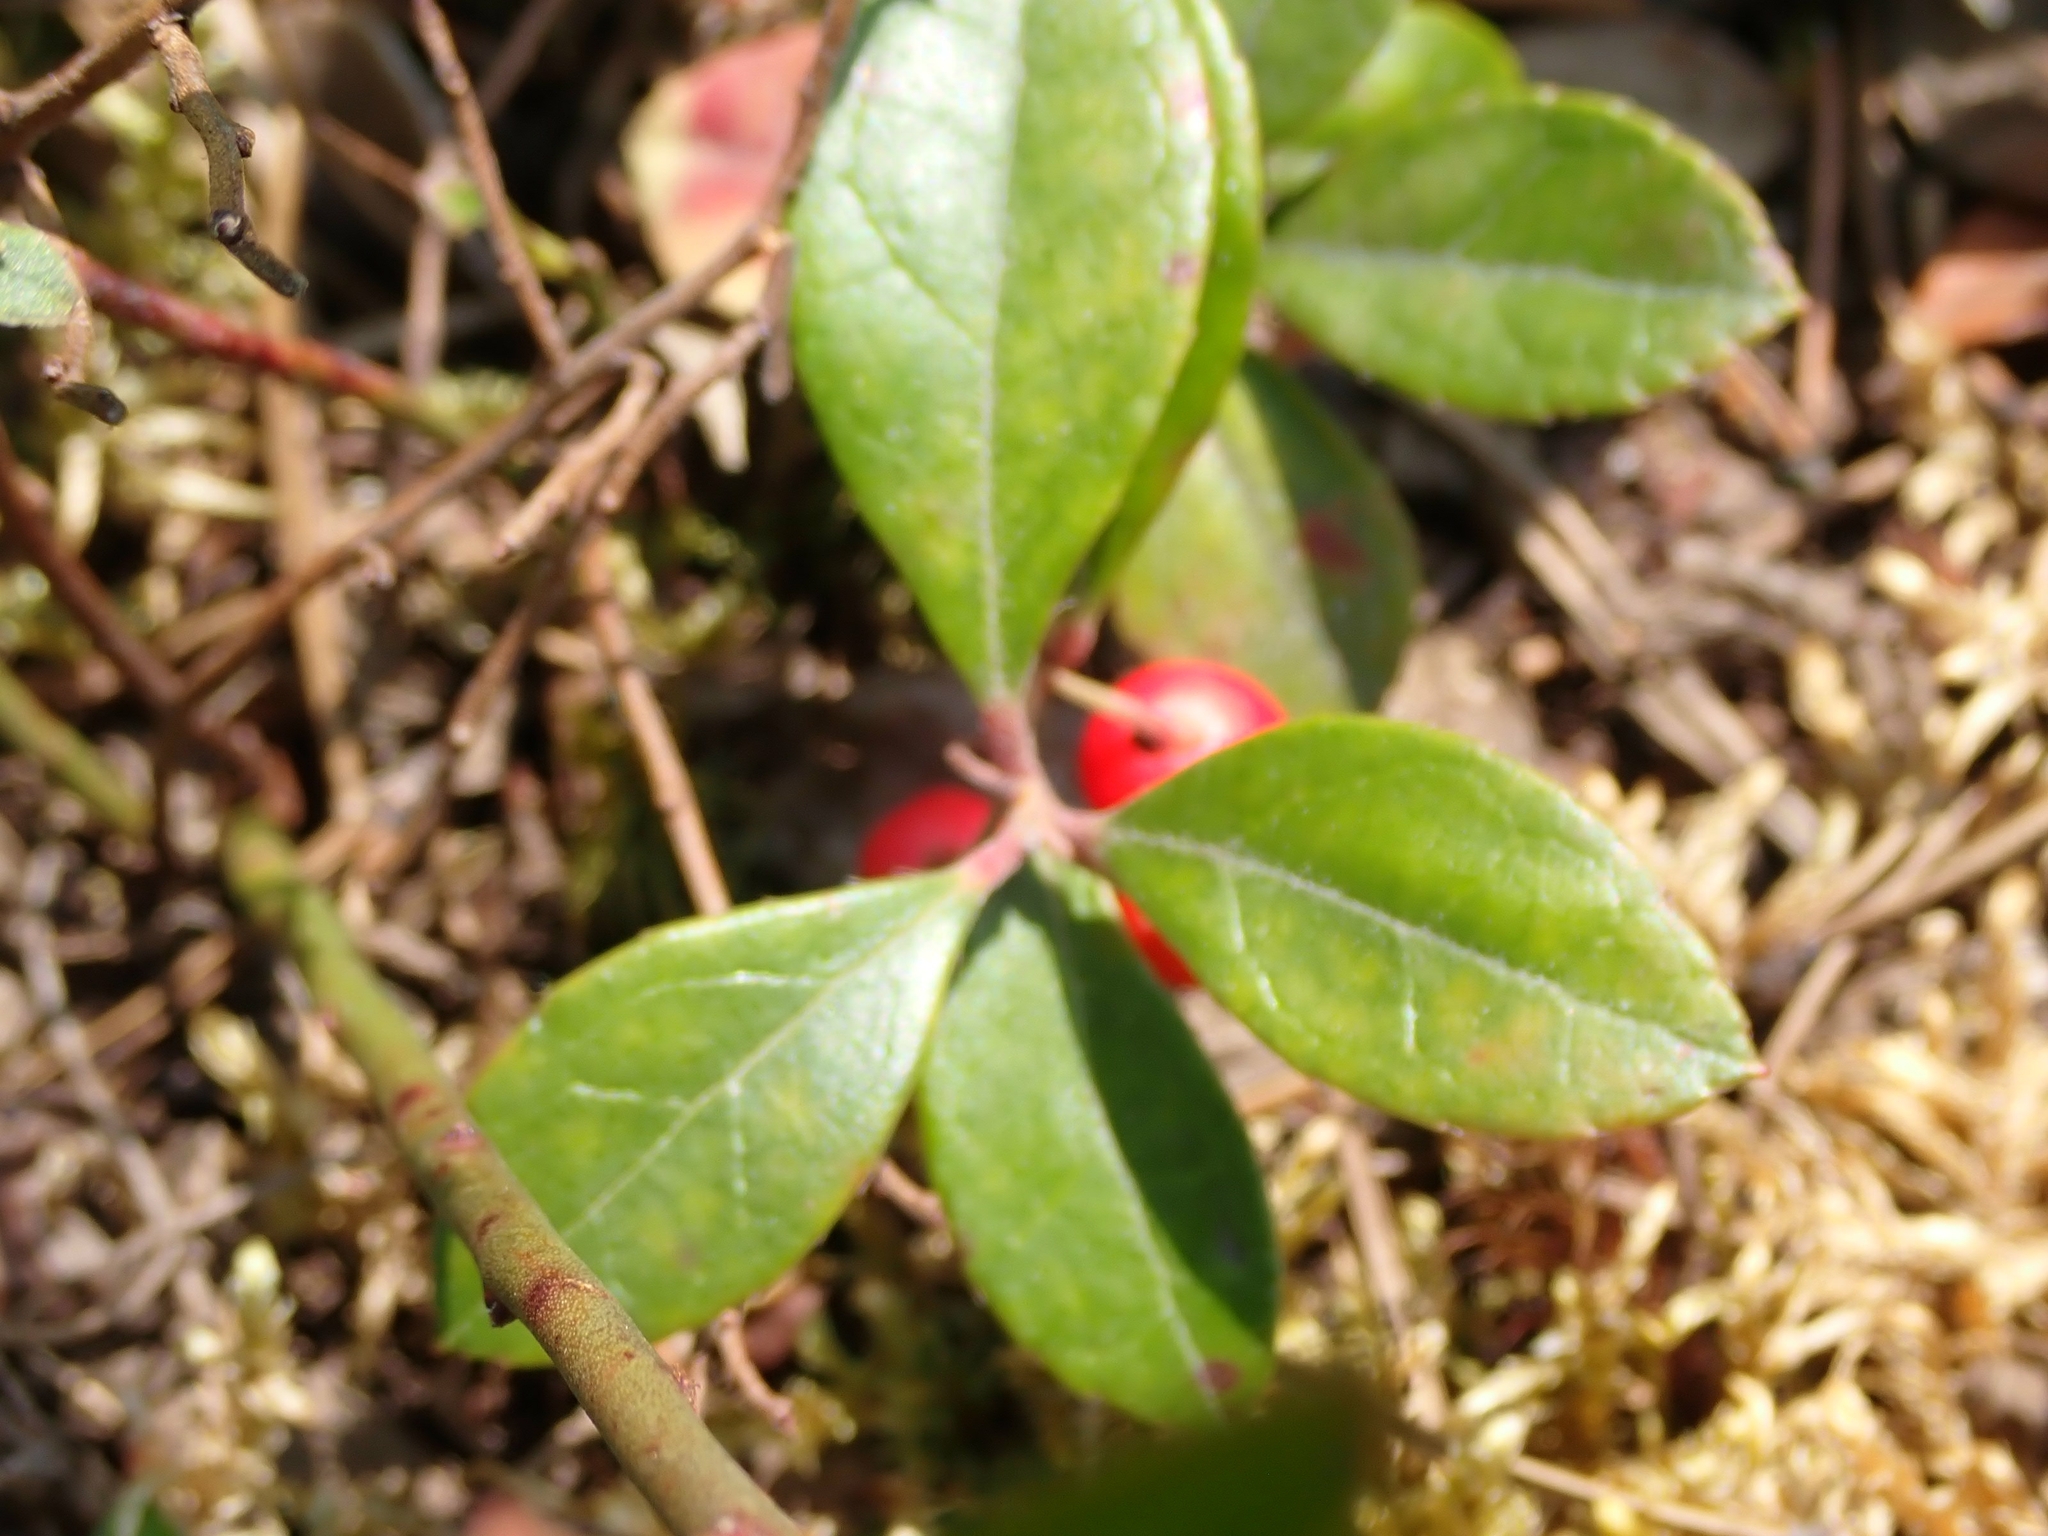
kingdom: Plantae
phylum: Tracheophyta
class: Magnoliopsida
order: Ericales
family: Ericaceae
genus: Gaultheria
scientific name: Gaultheria procumbens
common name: Checkerberry
